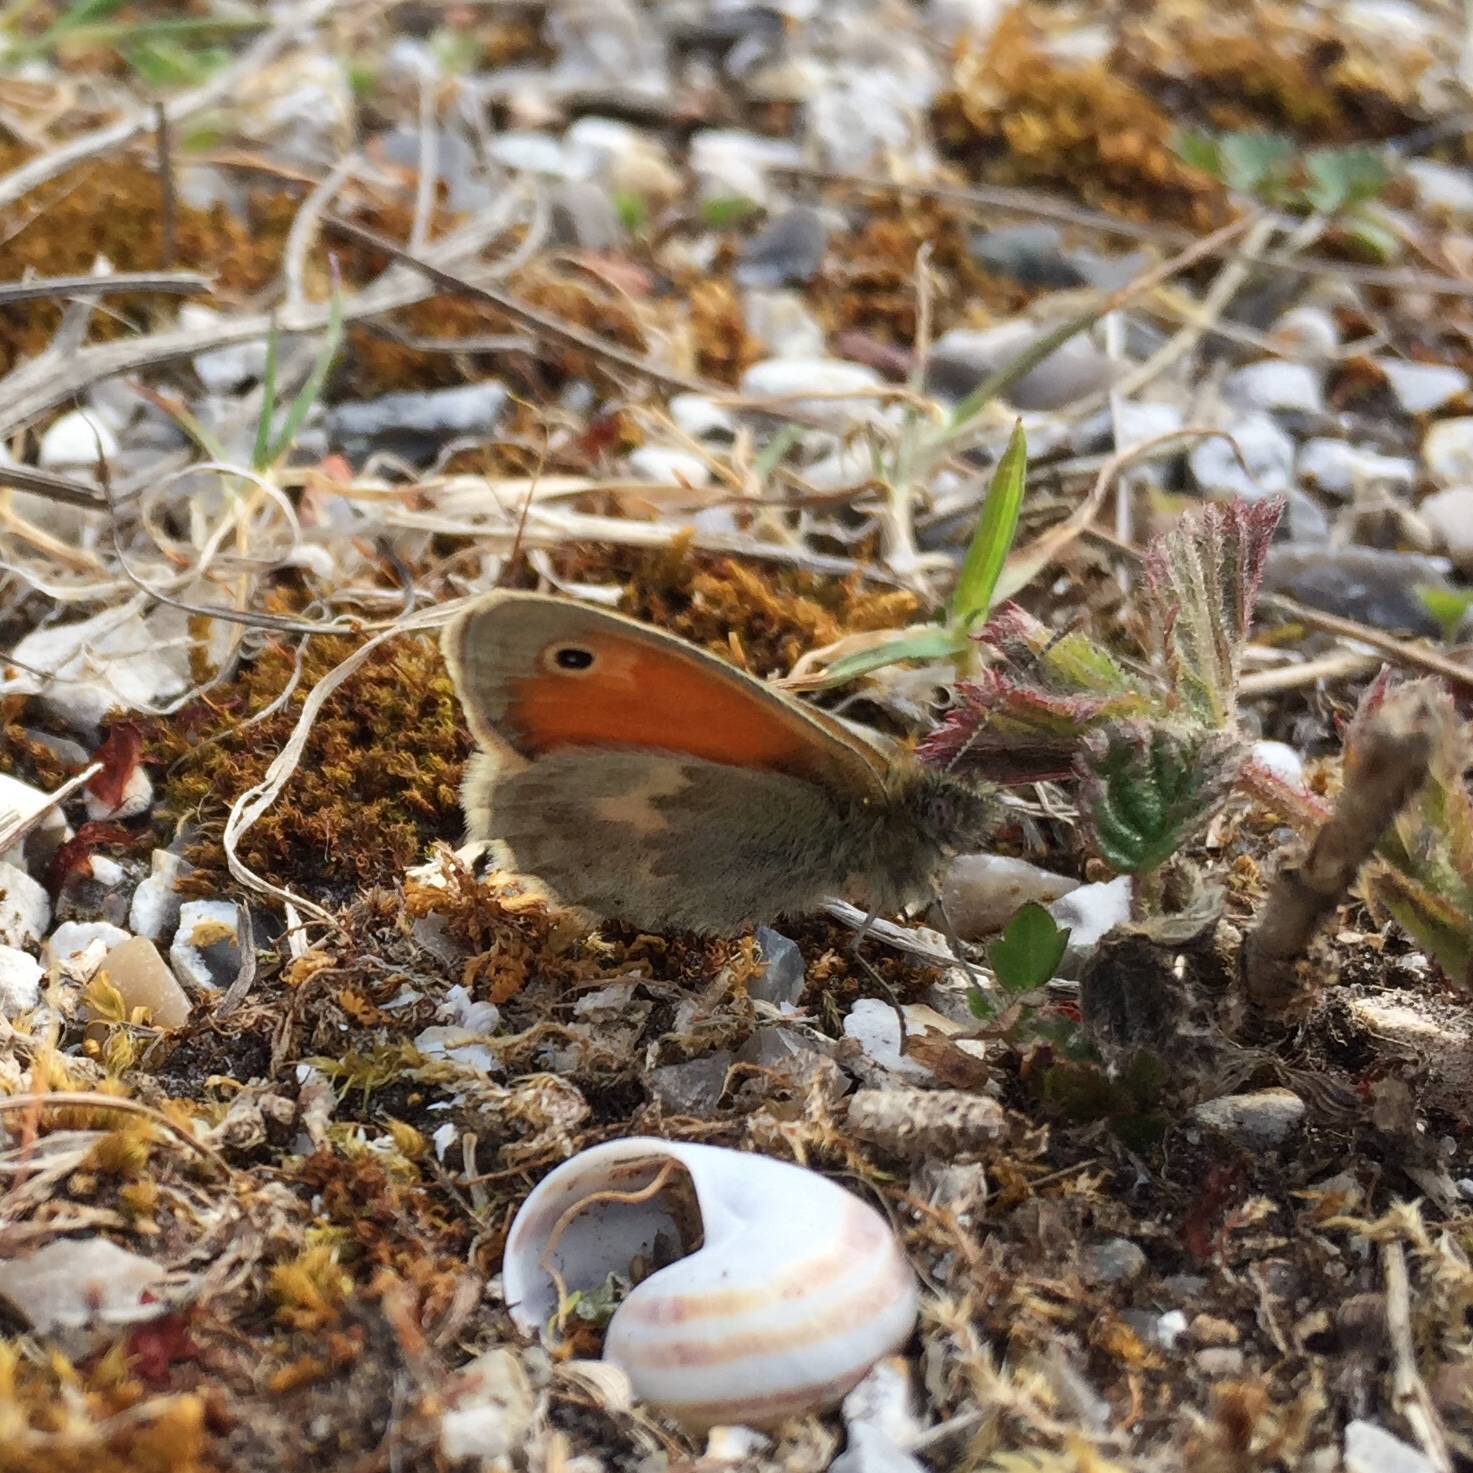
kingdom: Animalia
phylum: Arthropoda
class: Insecta
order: Lepidoptera
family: Nymphalidae
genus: Coenonympha
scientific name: Coenonympha pamphilus
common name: Small heath
